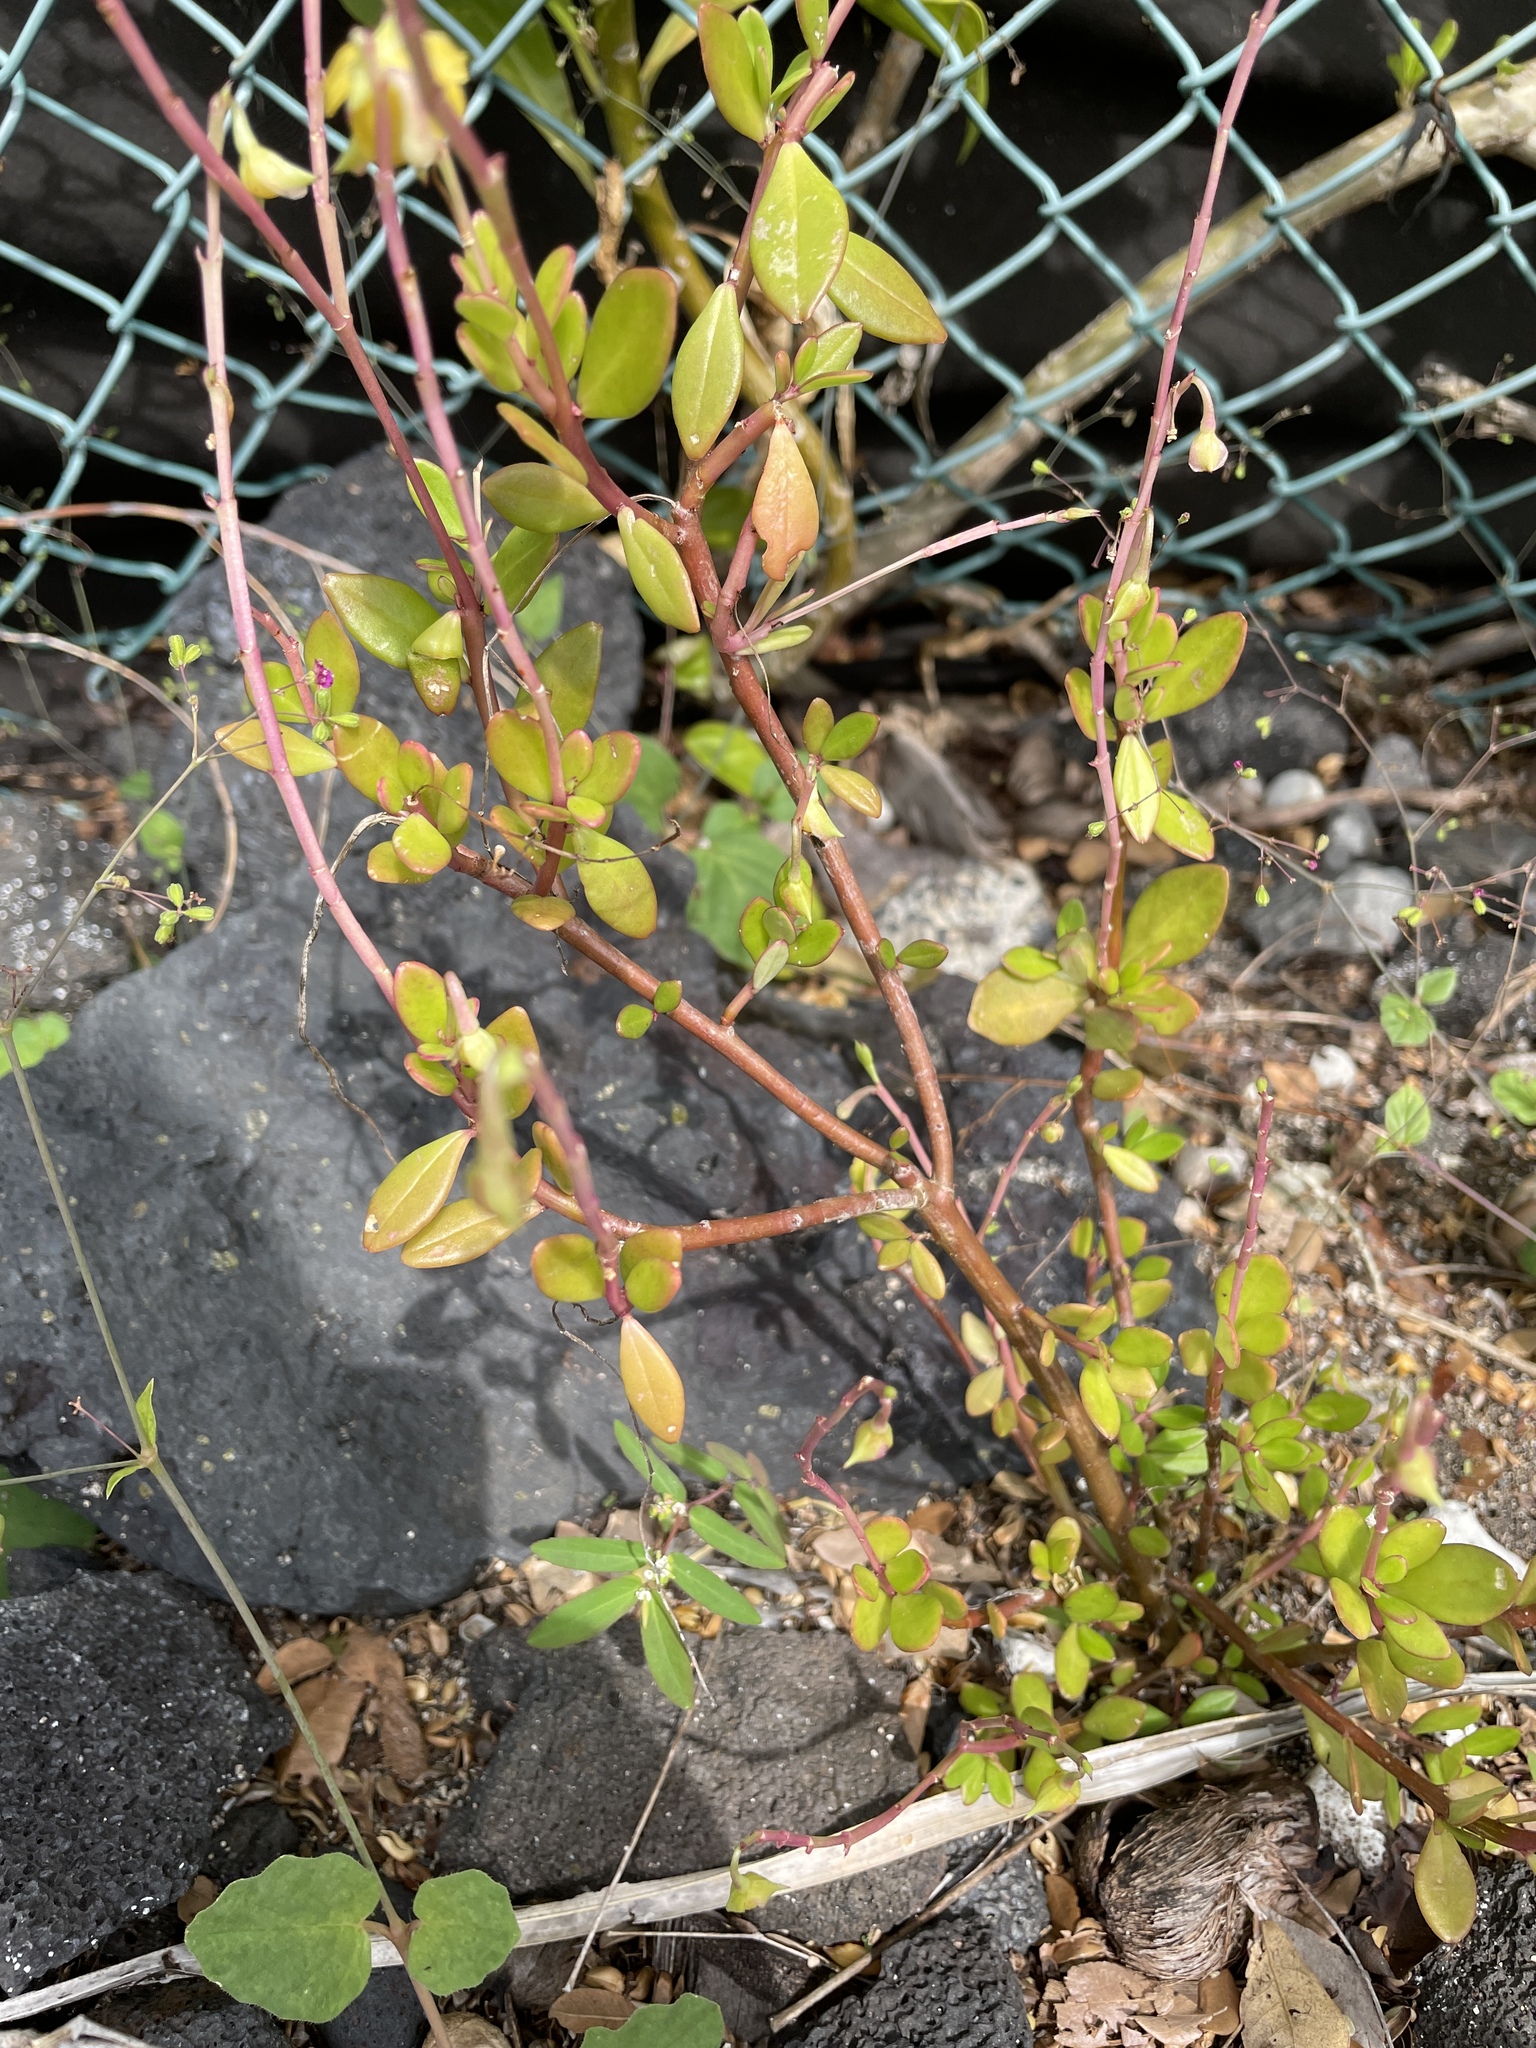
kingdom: Plantae
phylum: Tracheophyta
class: Magnoliopsida
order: Caryophyllales
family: Talinaceae
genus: Talinum
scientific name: Talinum fruticosum
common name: Verdolaga-francesa
